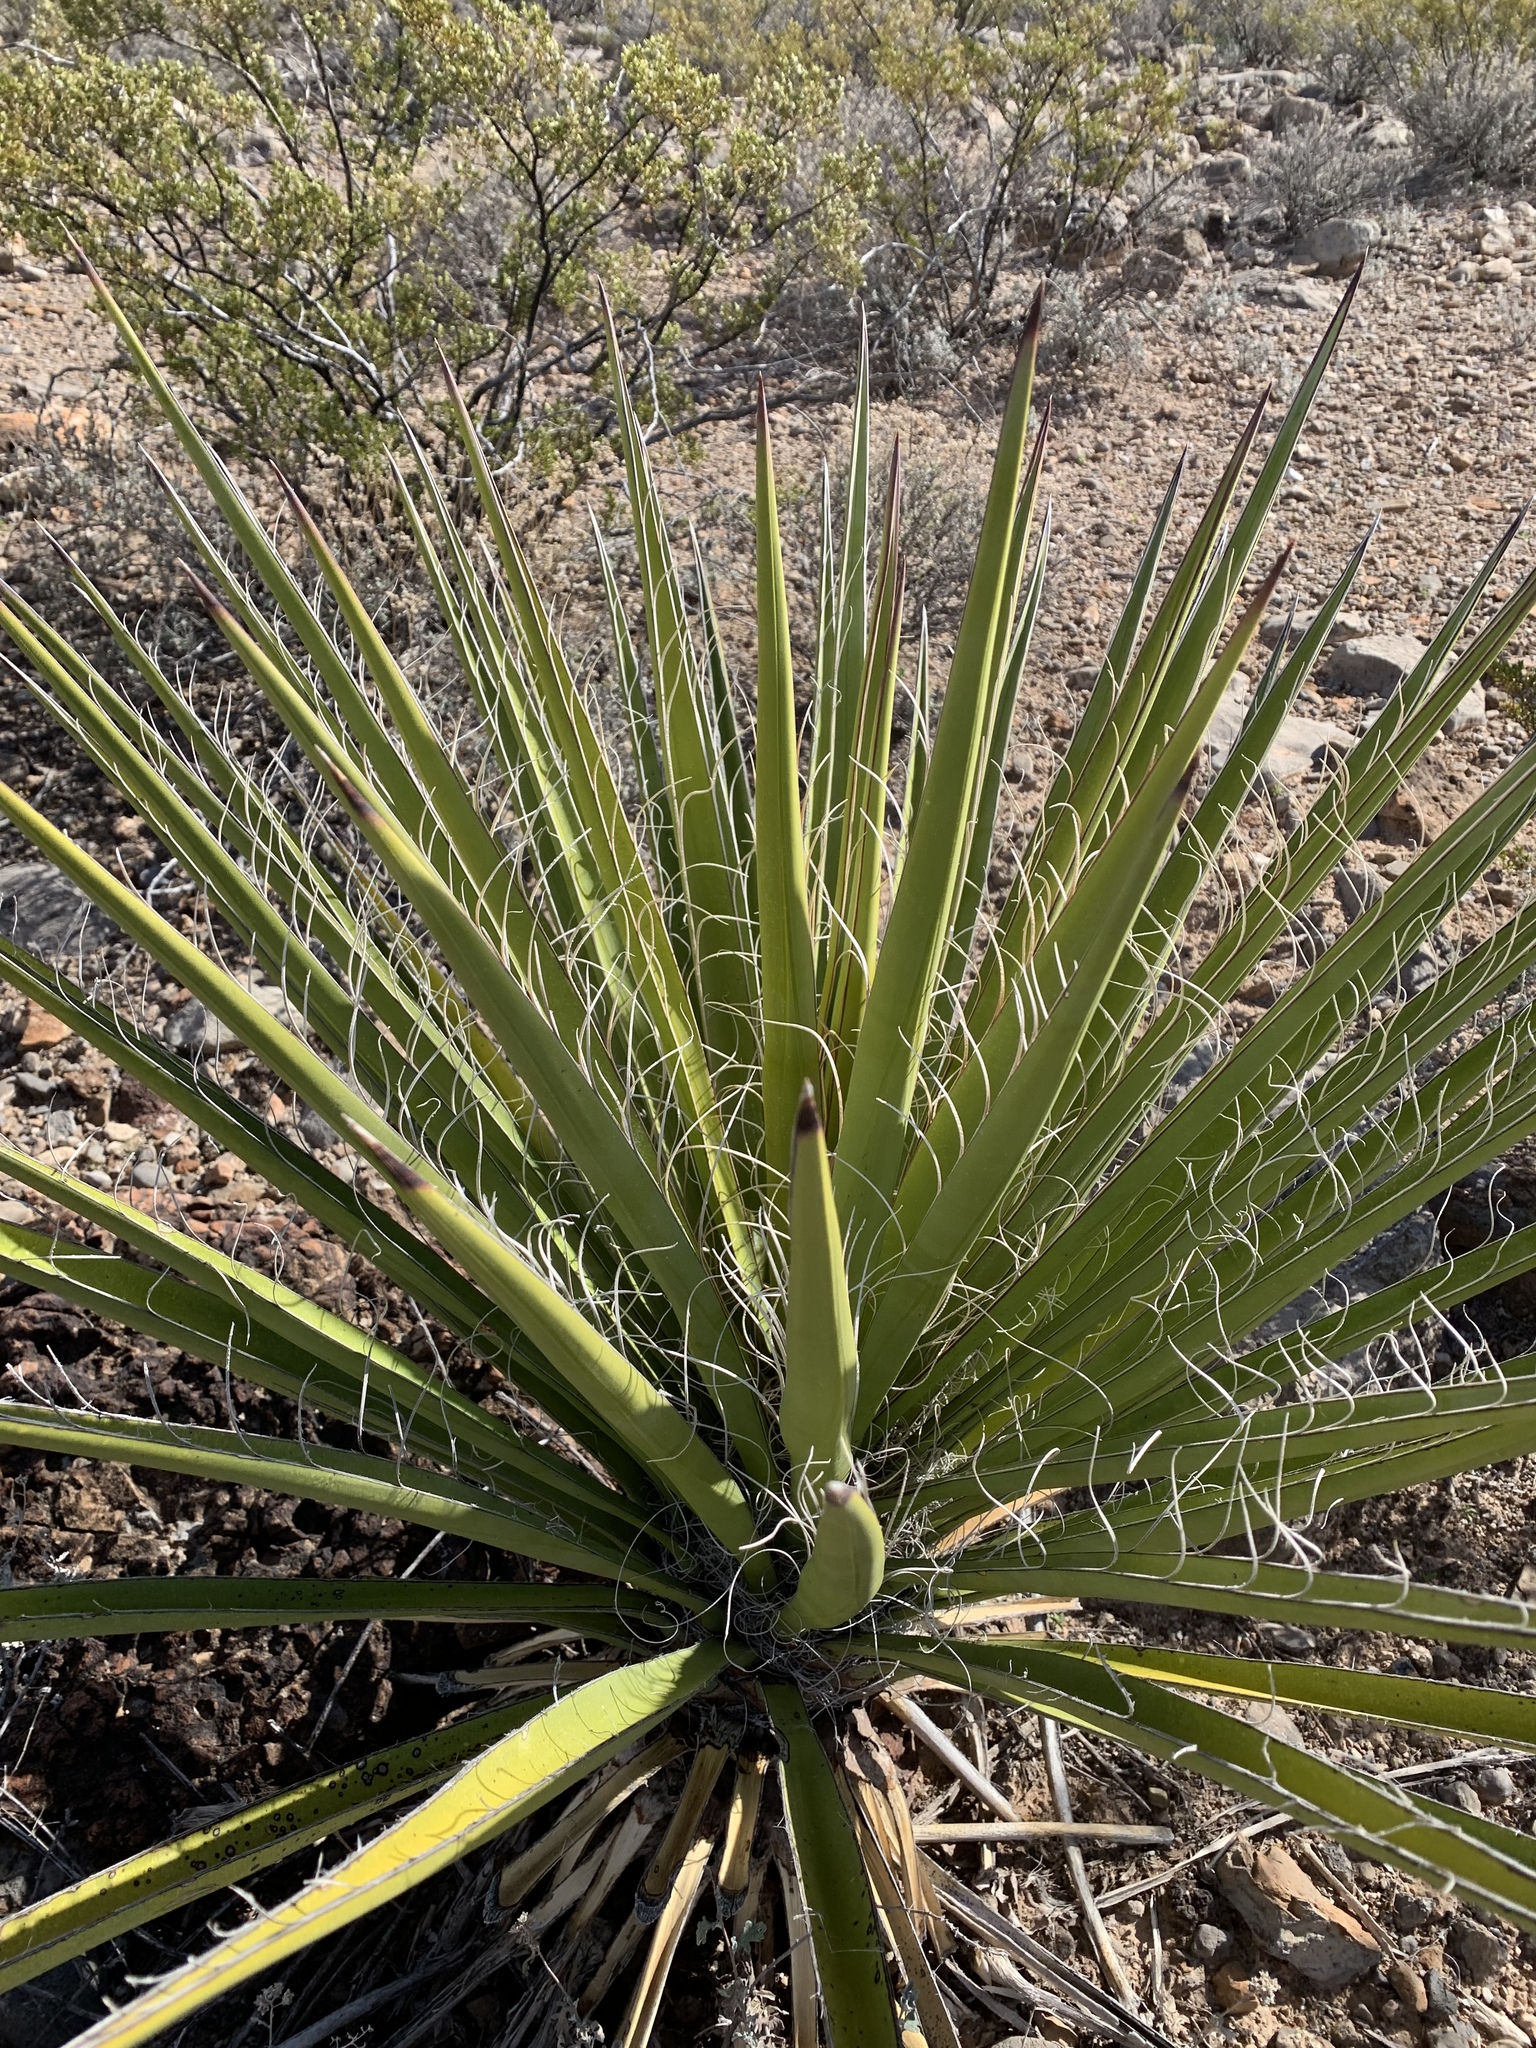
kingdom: Plantae
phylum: Tracheophyta
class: Liliopsida
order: Asparagales
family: Asparagaceae
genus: Yucca
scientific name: Yucca treculiana
